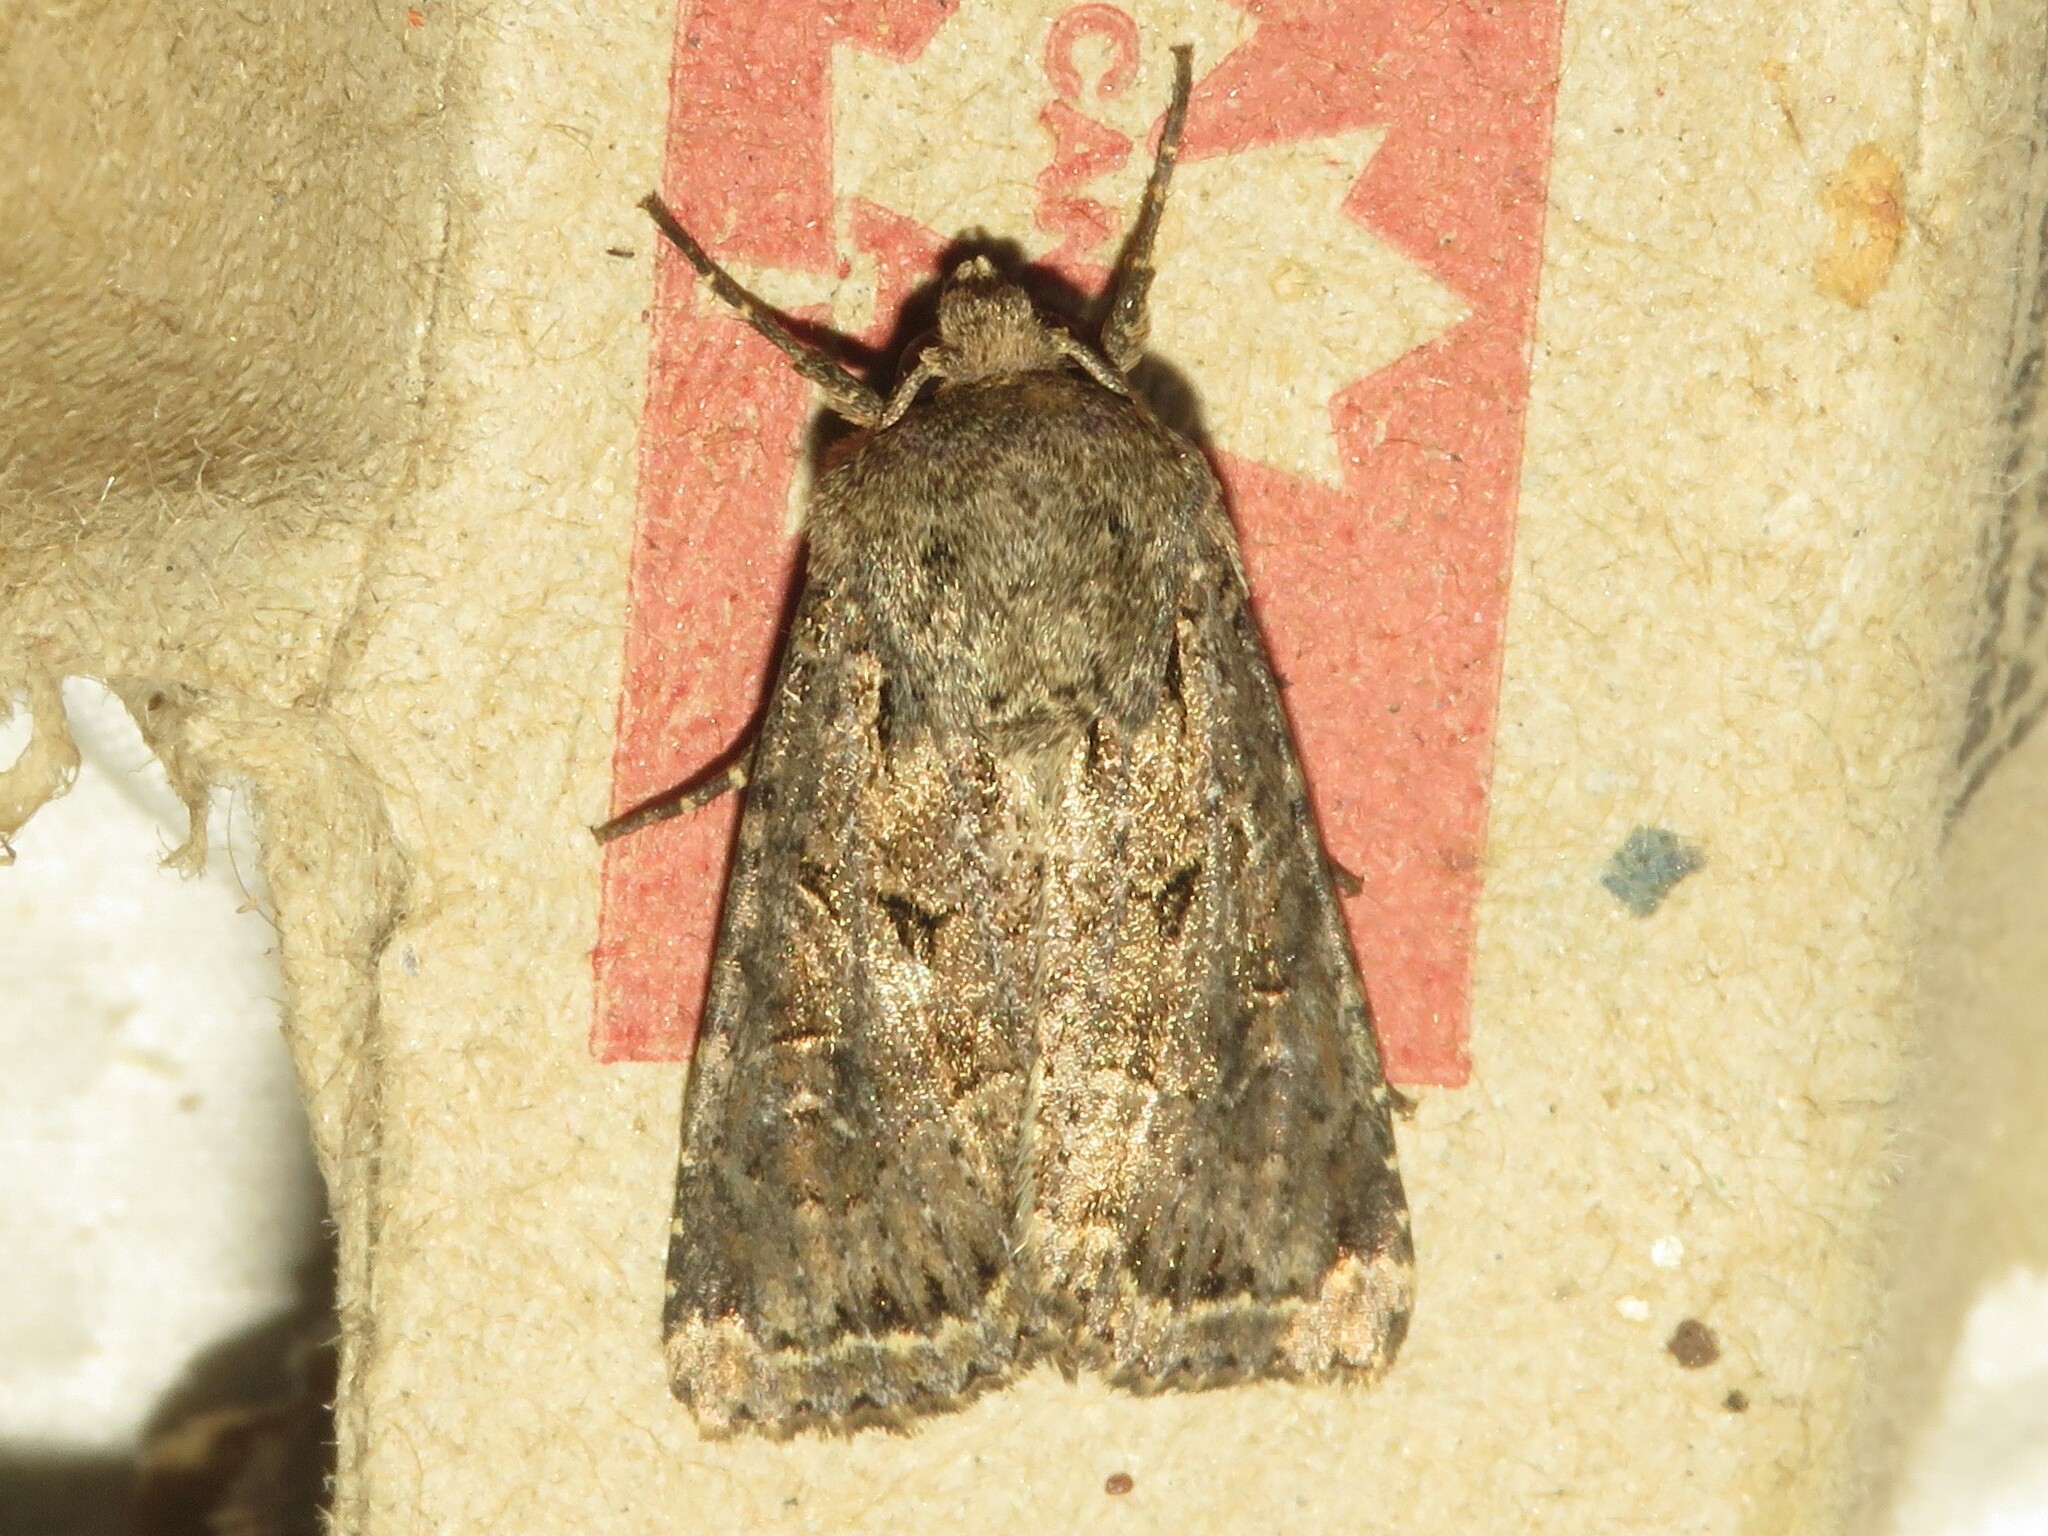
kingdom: Animalia
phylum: Arthropoda
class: Insecta
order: Lepidoptera
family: Noctuidae
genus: Apamea
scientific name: Apamea devastator
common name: Glassy cutworm
